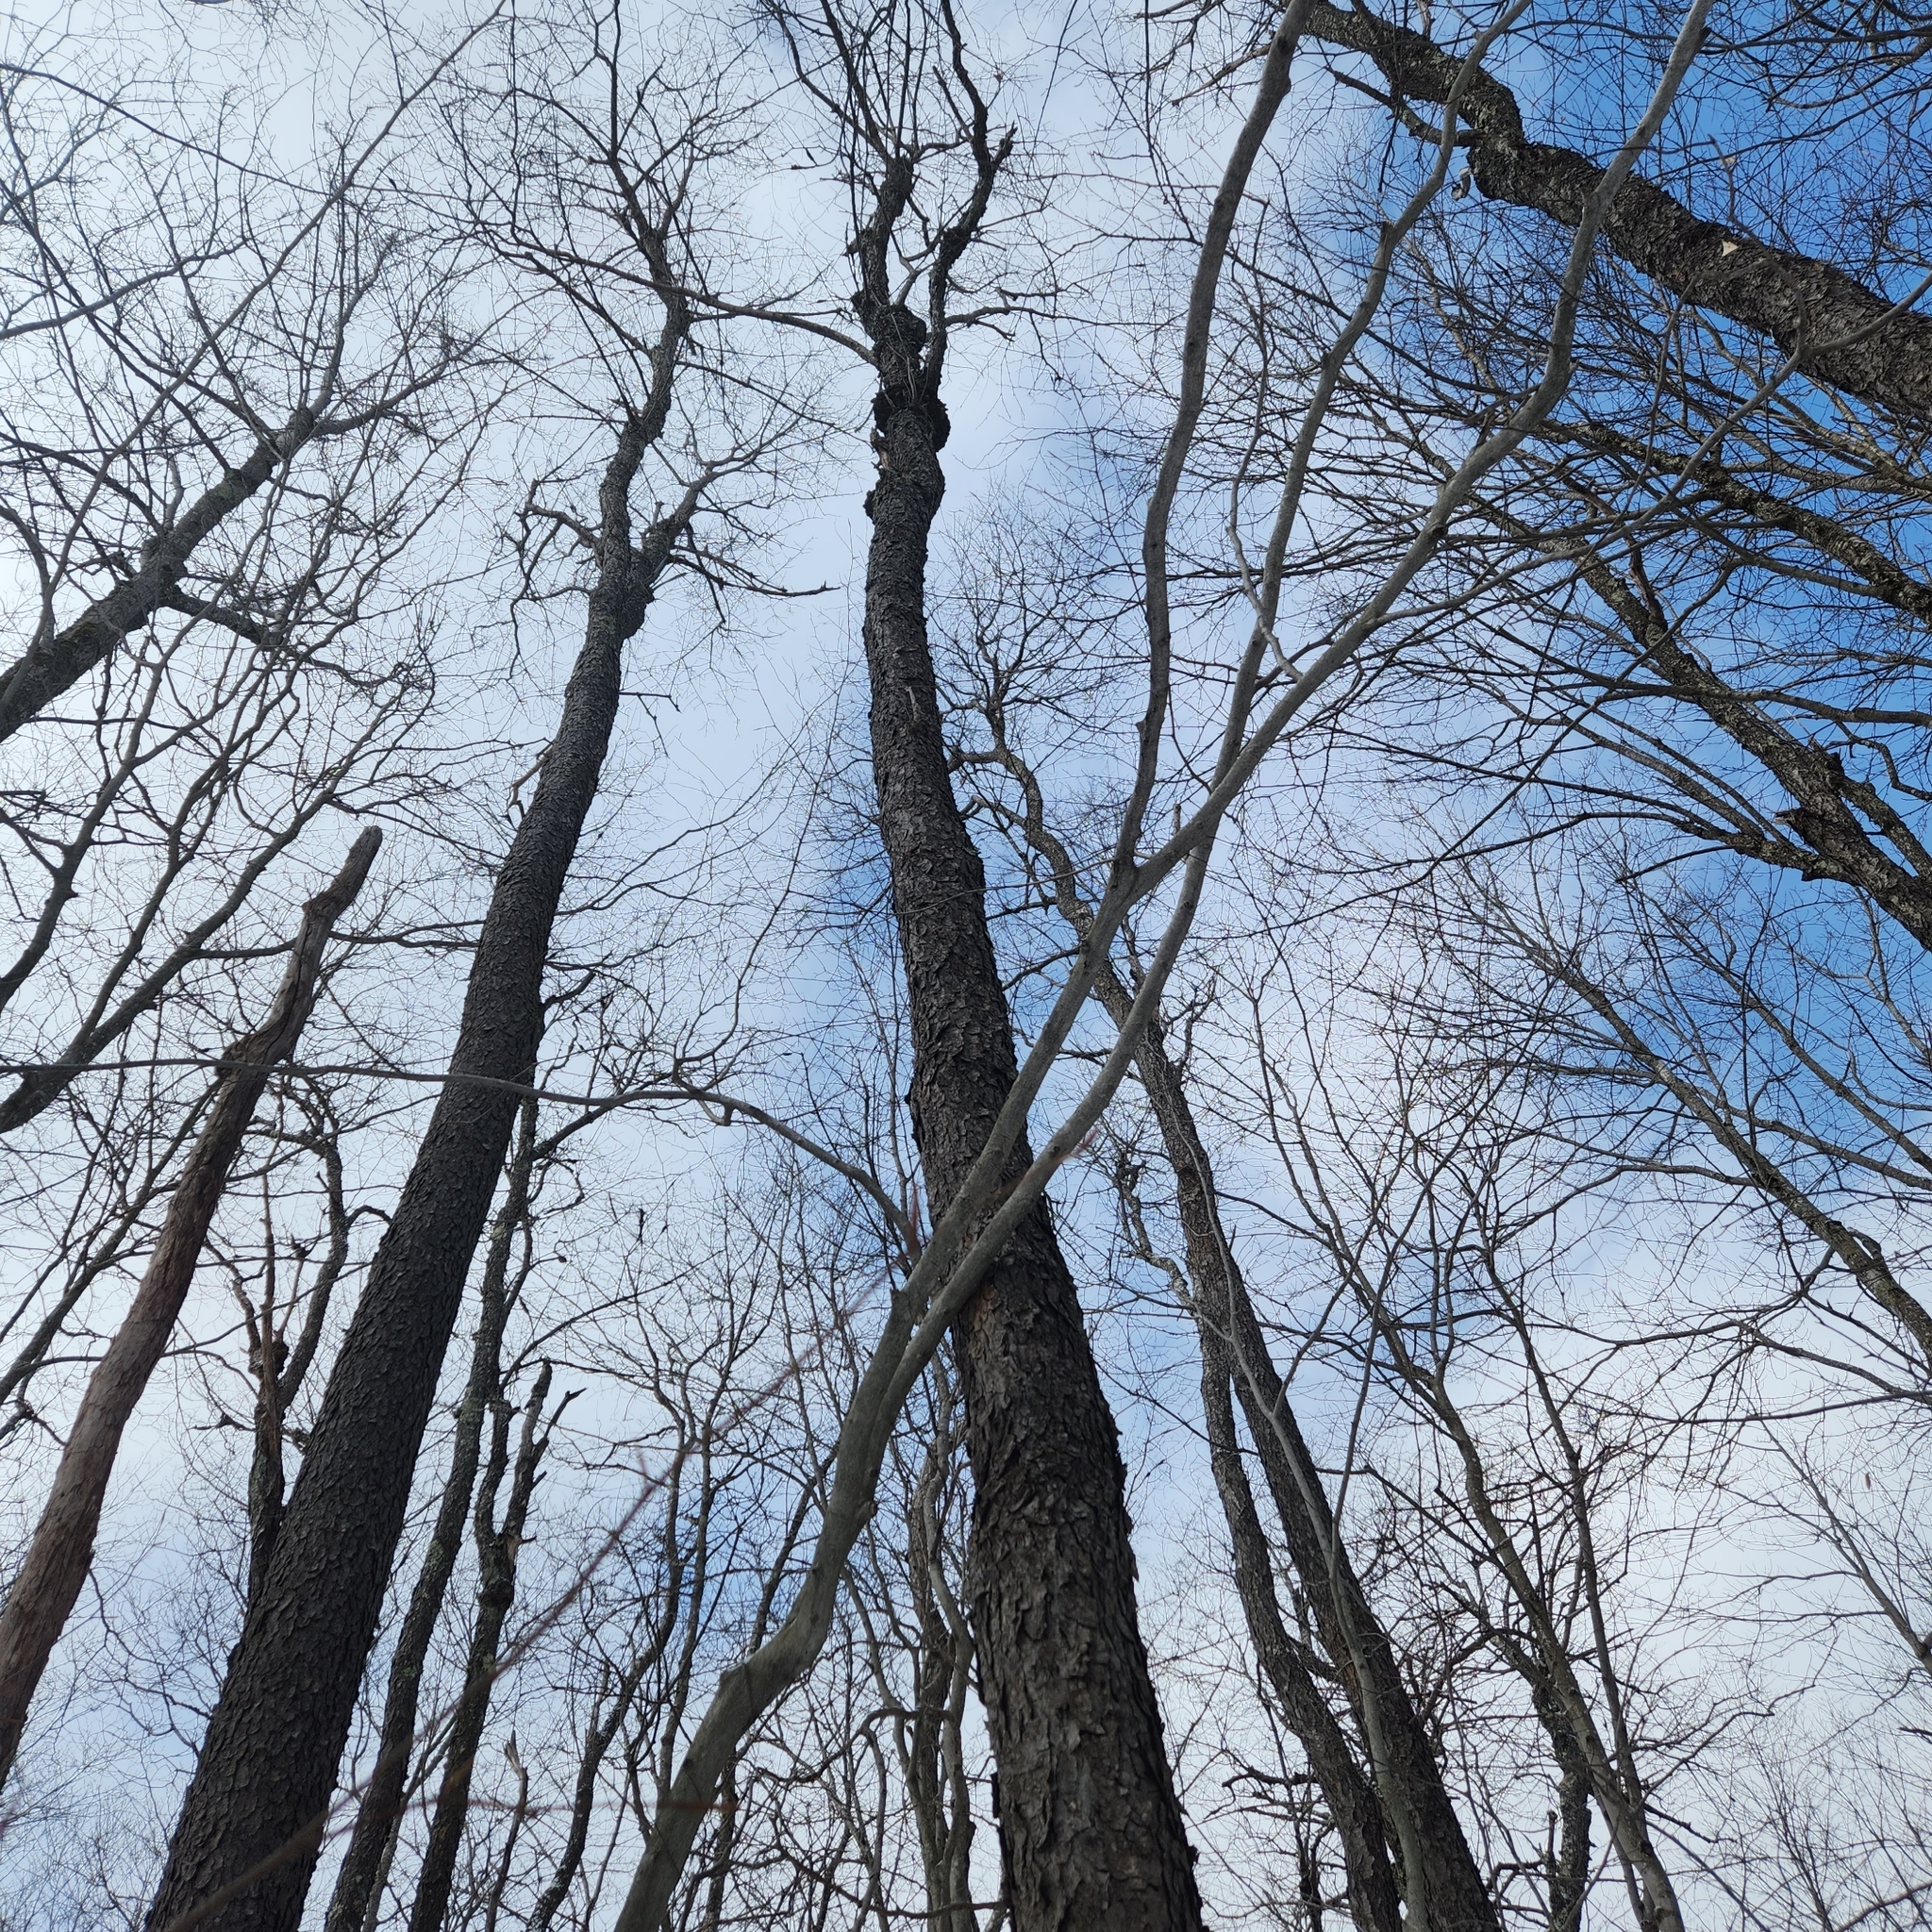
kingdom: Plantae
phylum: Tracheophyta
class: Magnoliopsida
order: Rosales
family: Rosaceae
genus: Prunus
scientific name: Prunus serotina
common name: Black cherry
